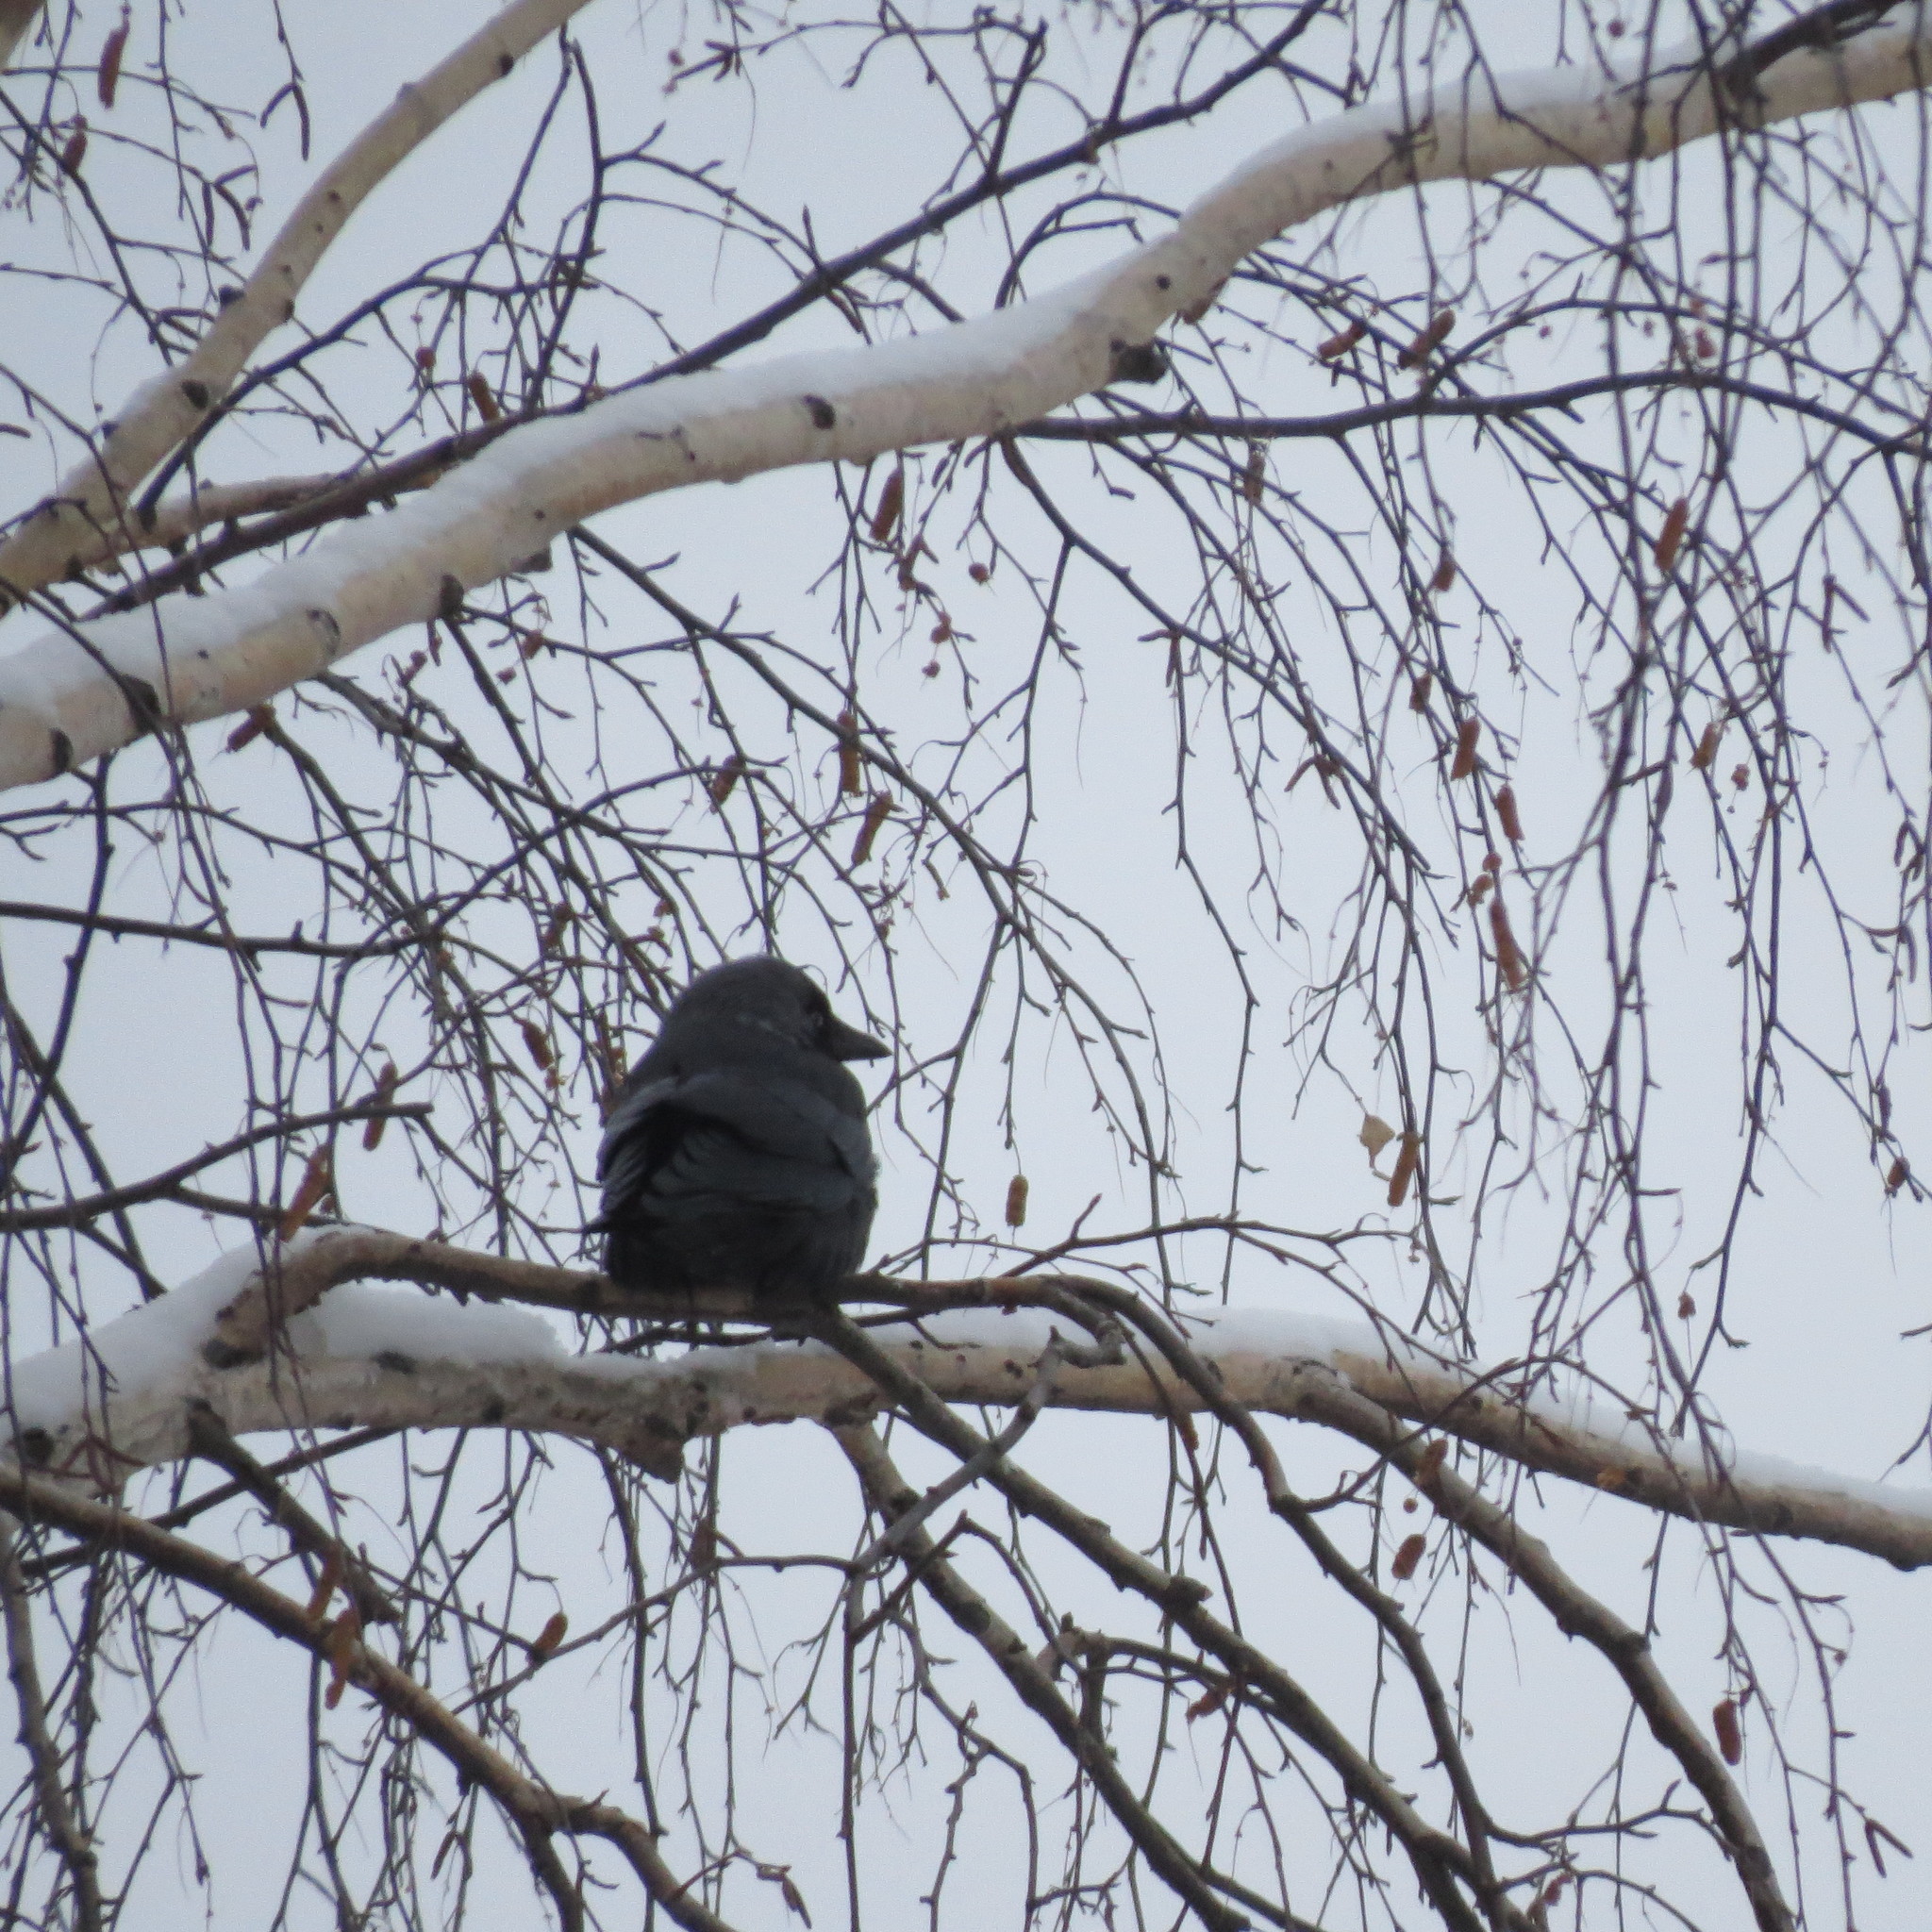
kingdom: Animalia
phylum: Chordata
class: Aves
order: Passeriformes
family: Corvidae
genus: Coloeus
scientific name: Coloeus monedula
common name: Western jackdaw
